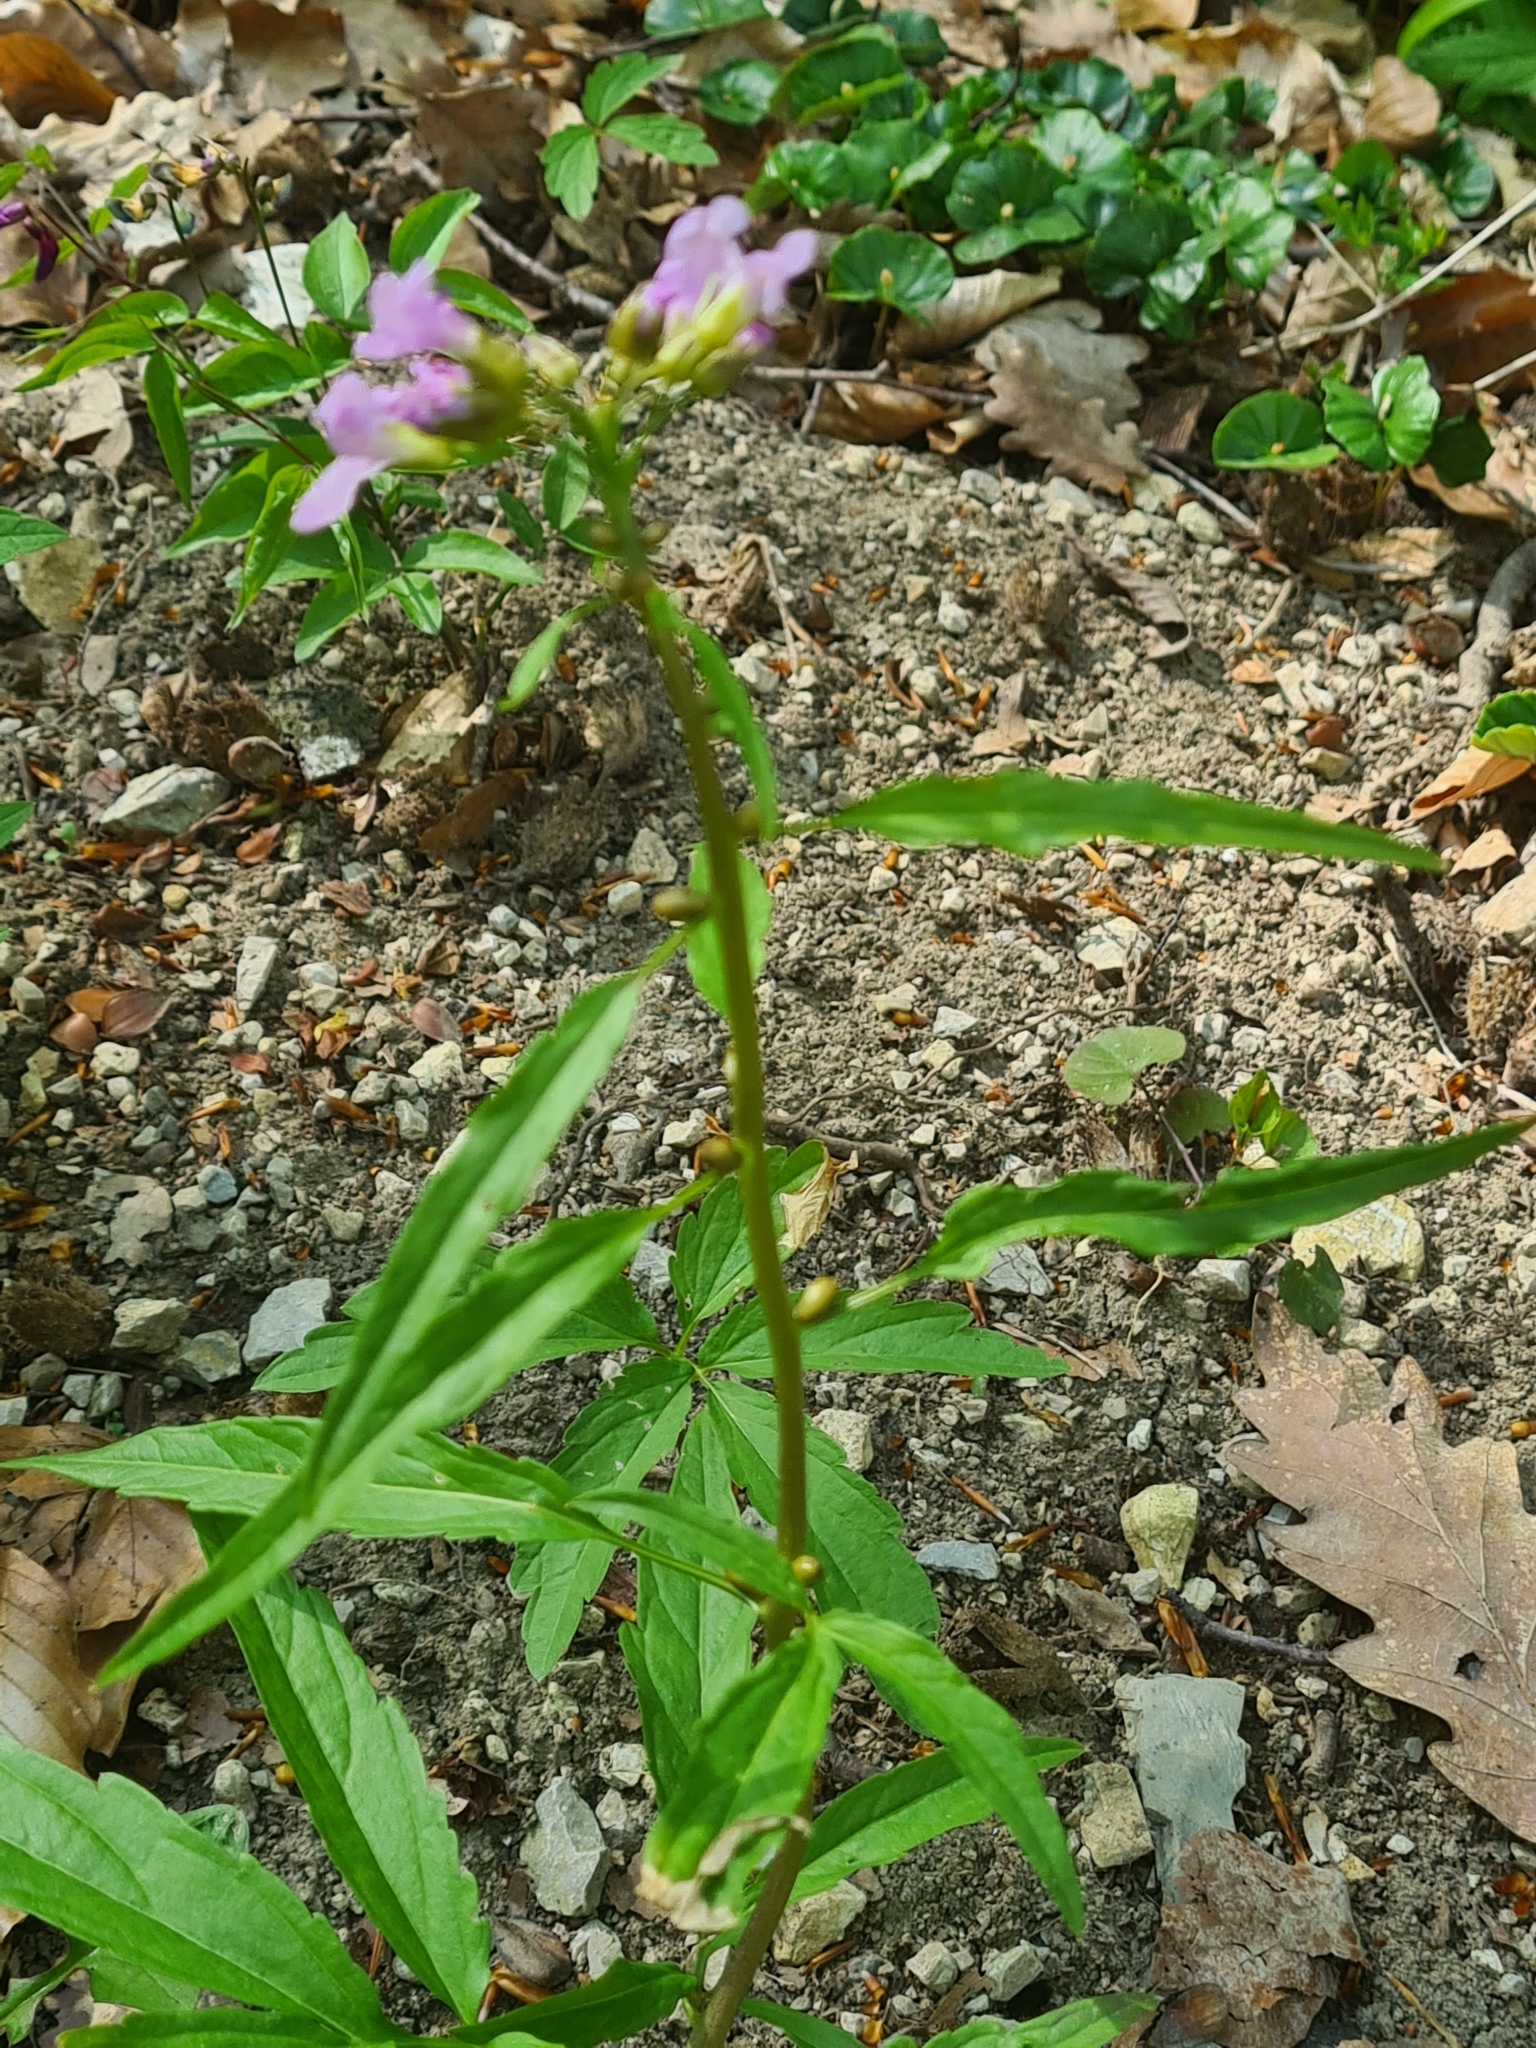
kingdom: Plantae
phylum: Tracheophyta
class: Magnoliopsida
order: Brassicales
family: Brassicaceae
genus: Cardamine
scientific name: Cardamine bulbifera
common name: Coralroot bittercress
